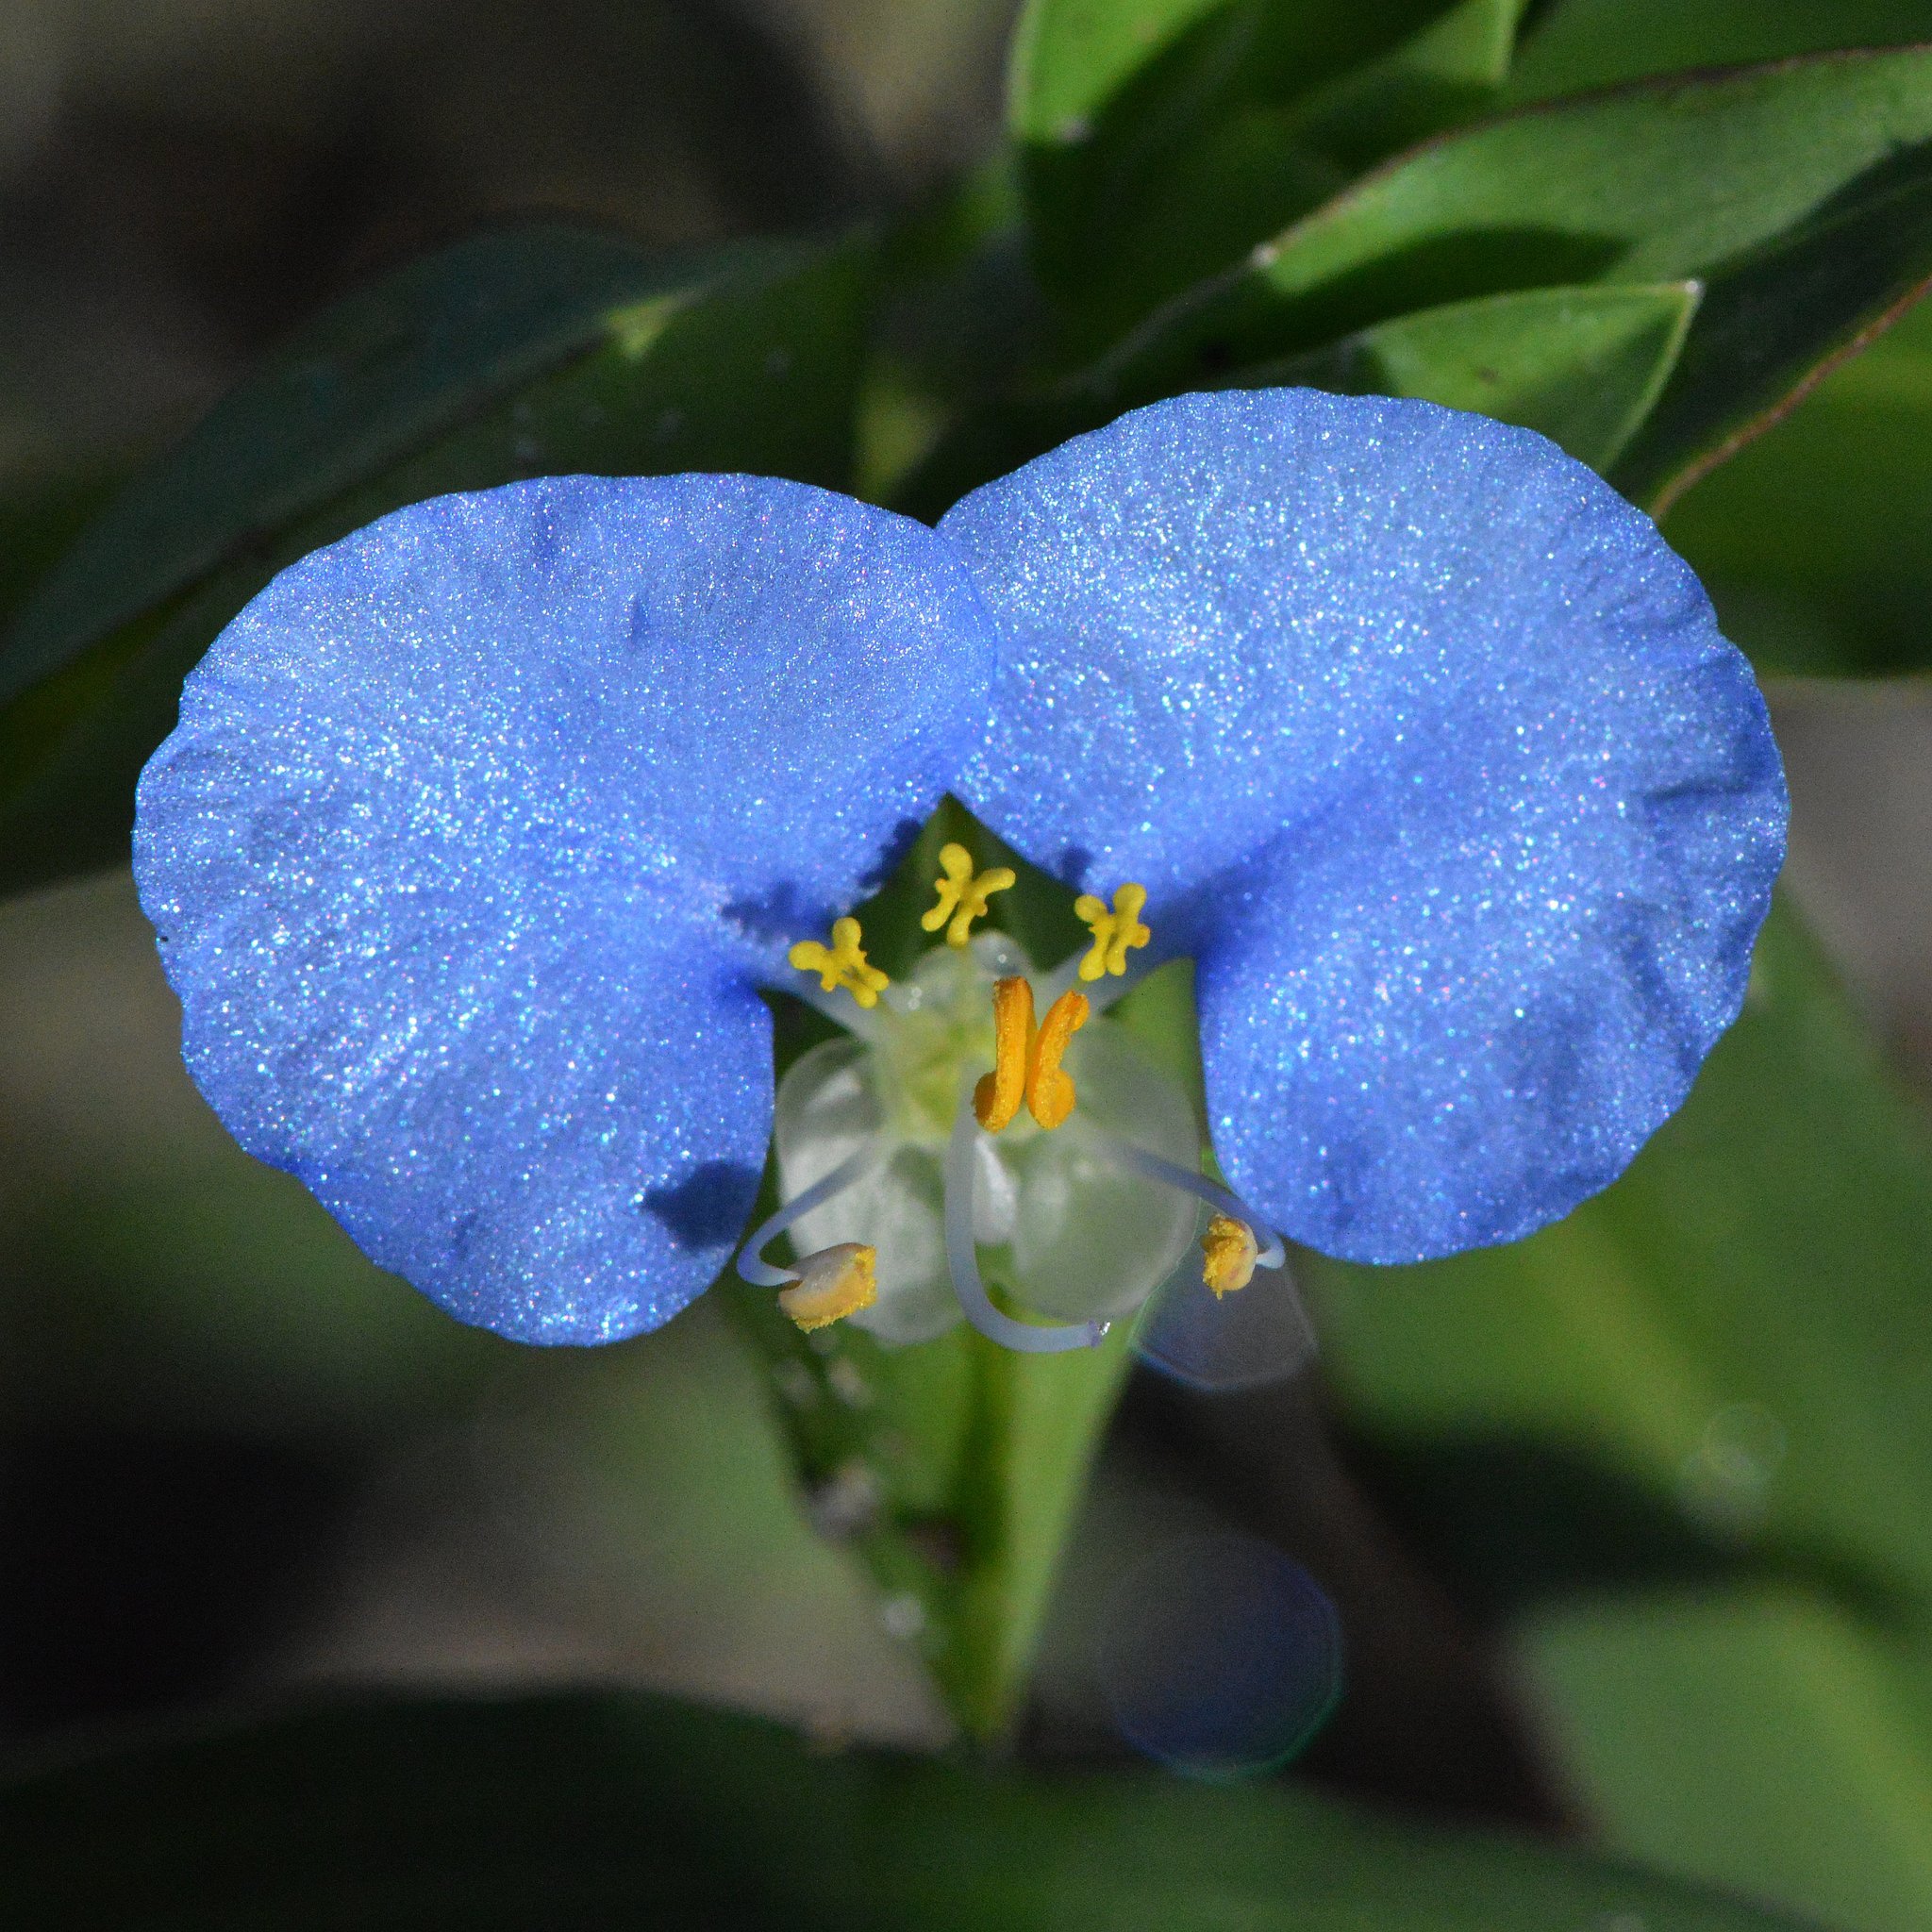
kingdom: Plantae
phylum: Tracheophyta
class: Liliopsida
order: Commelinales
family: Commelinaceae
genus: Commelina
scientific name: Commelina erecta
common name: Blousel blommetjie
